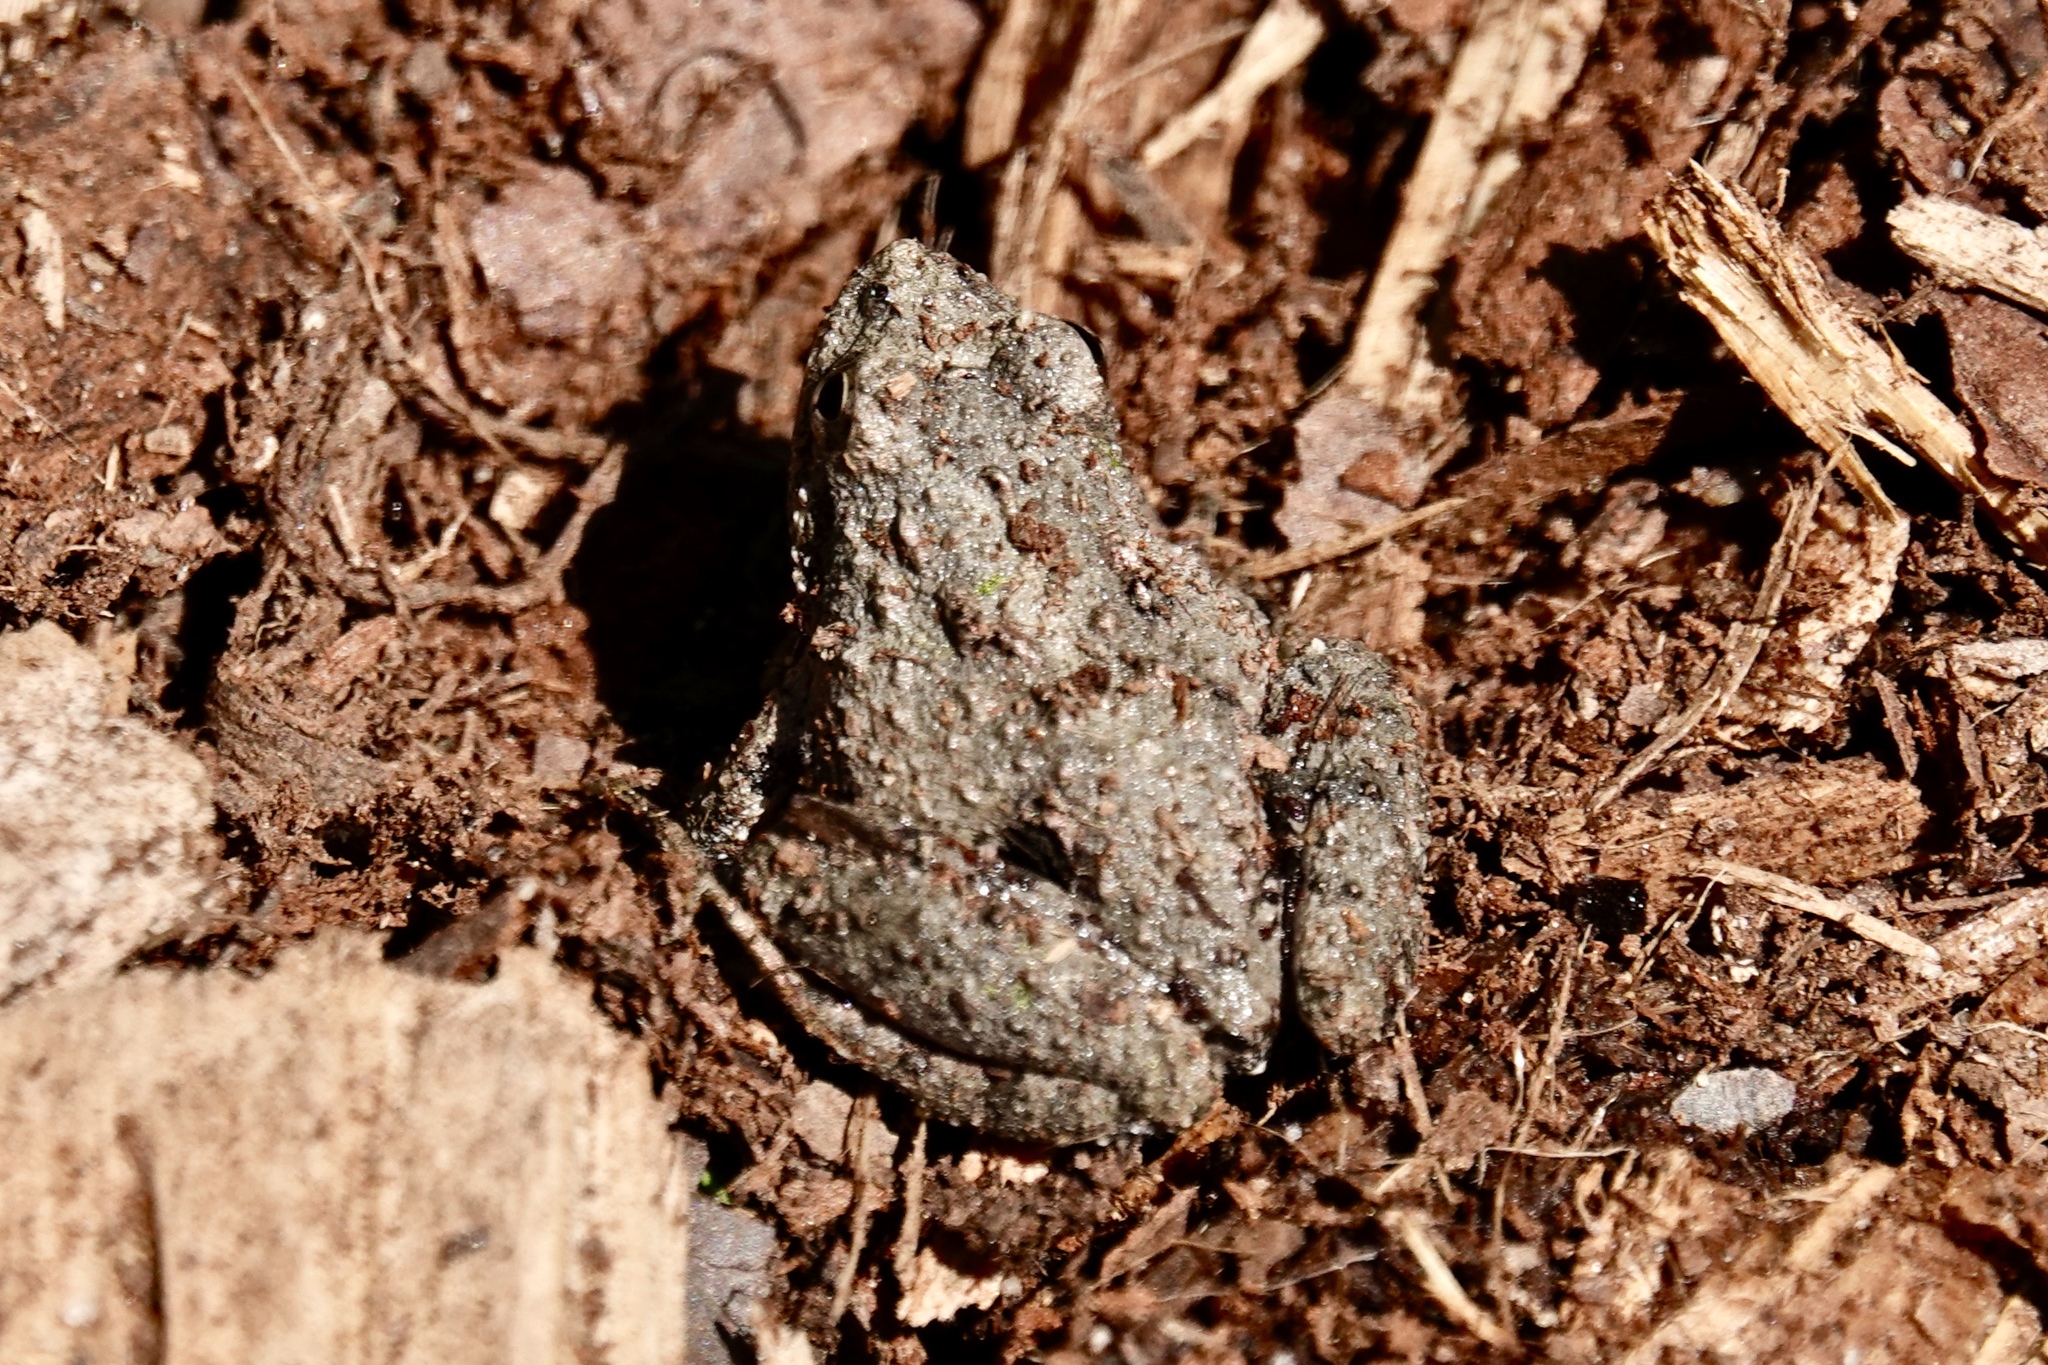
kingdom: Animalia
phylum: Chordata
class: Amphibia
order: Anura
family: Hylidae
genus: Acris
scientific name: Acris crepitans
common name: Northern cricket frog
